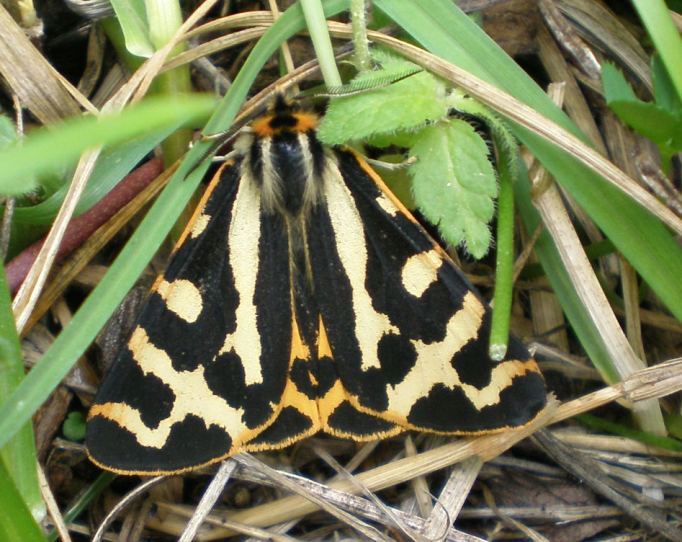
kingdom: Animalia
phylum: Arthropoda
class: Insecta
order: Lepidoptera
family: Erebidae
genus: Parasemia
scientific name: Parasemia plantaginis
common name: Wood tiger
